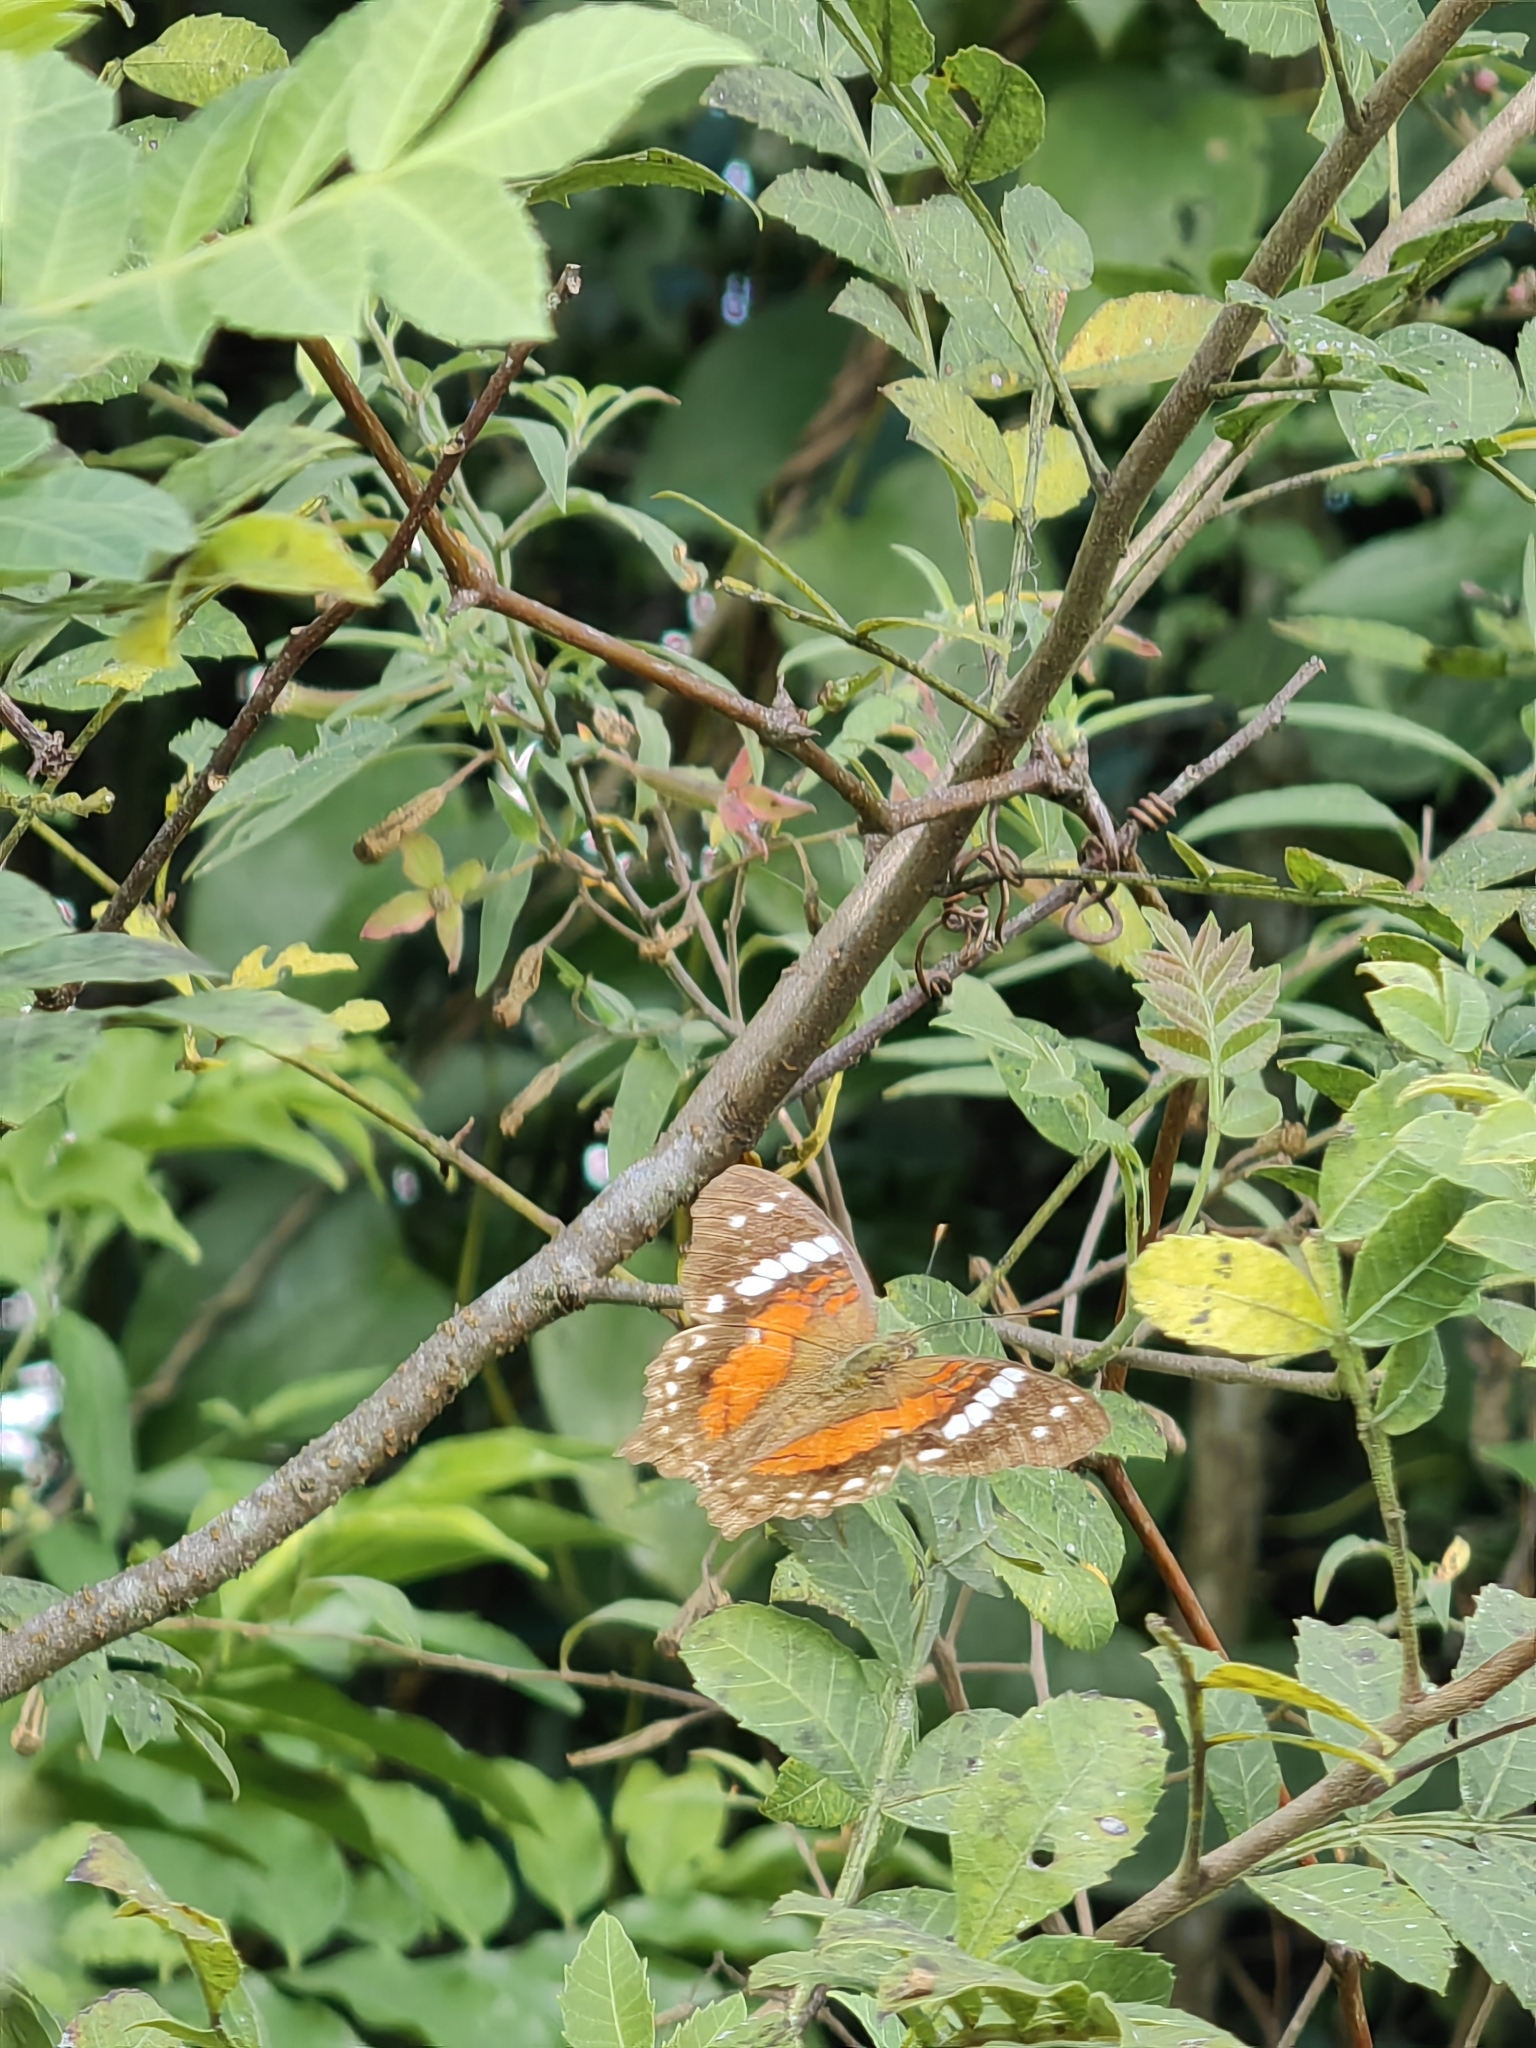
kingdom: Animalia
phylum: Arthropoda
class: Insecta
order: Lepidoptera
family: Nymphalidae
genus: Anartia
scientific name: Anartia amathea
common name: Red peacock
